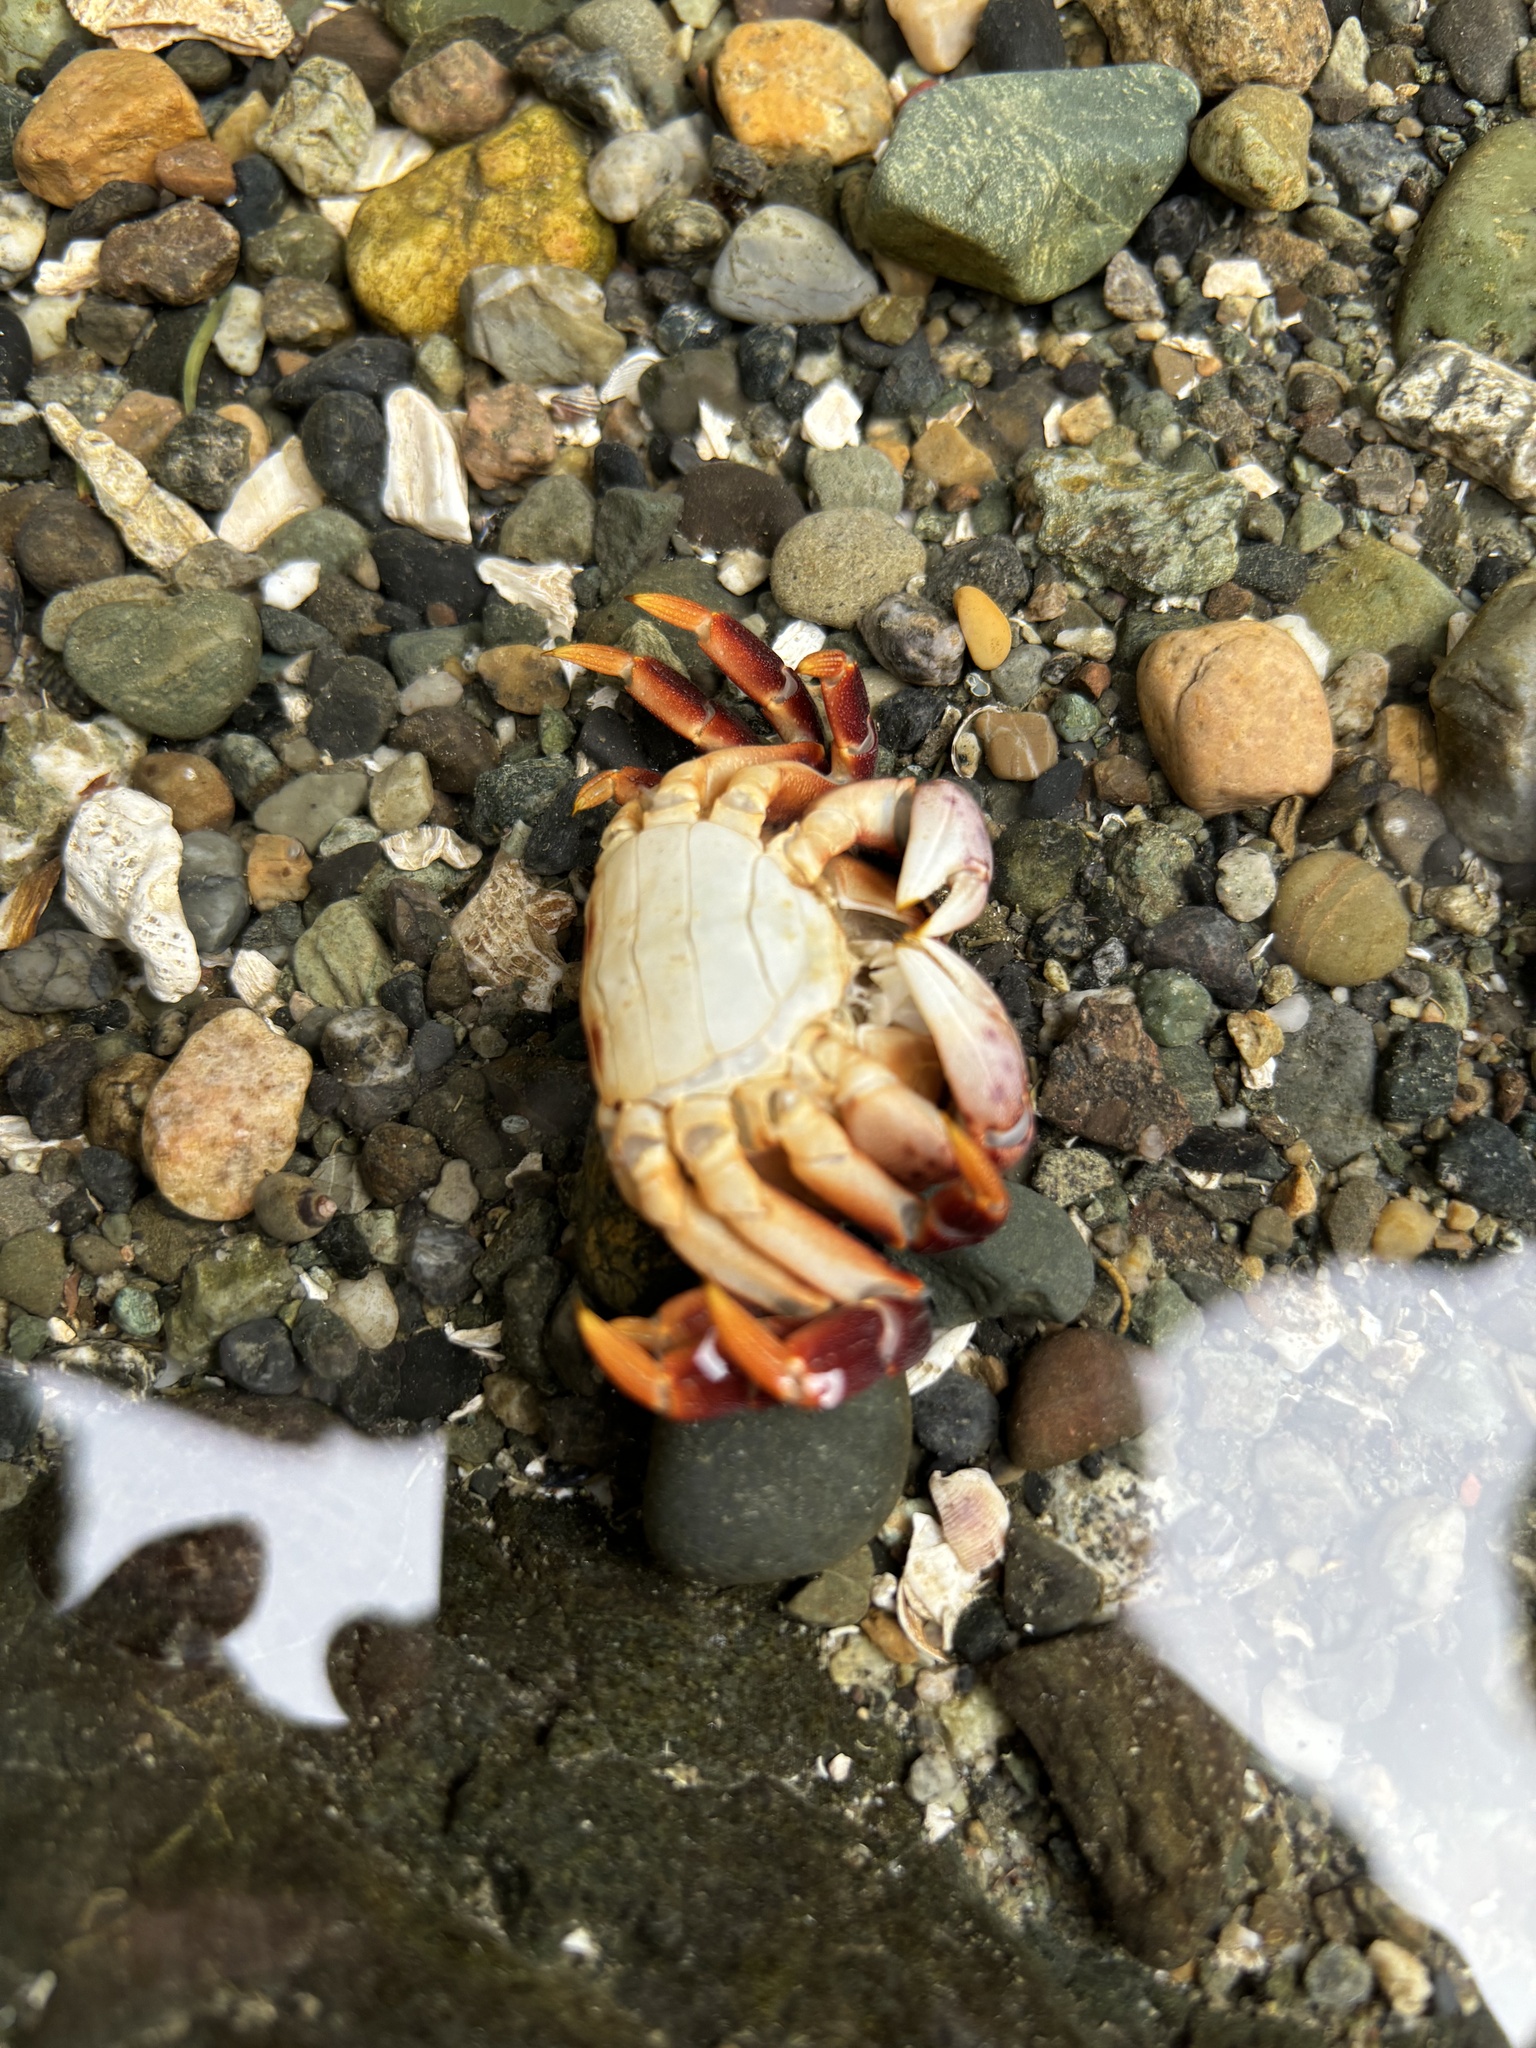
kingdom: Animalia
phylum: Arthropoda
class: Malacostraca
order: Decapoda
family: Varunidae
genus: Hemigrapsus
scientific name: Hemigrapsus nudus
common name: Purple shore crab
